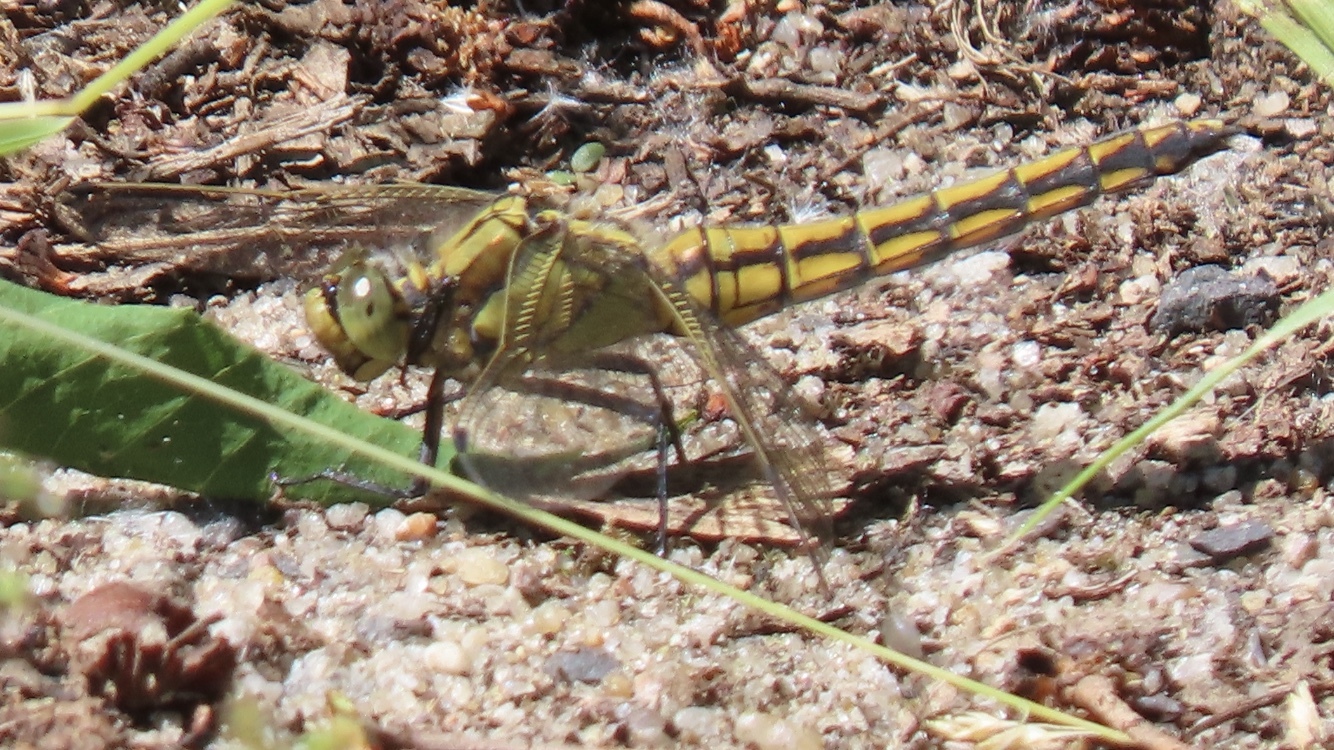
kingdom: Animalia
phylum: Arthropoda
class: Insecta
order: Odonata
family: Libellulidae
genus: Orthetrum
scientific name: Orthetrum cancellatum
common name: Black-tailed skimmer
